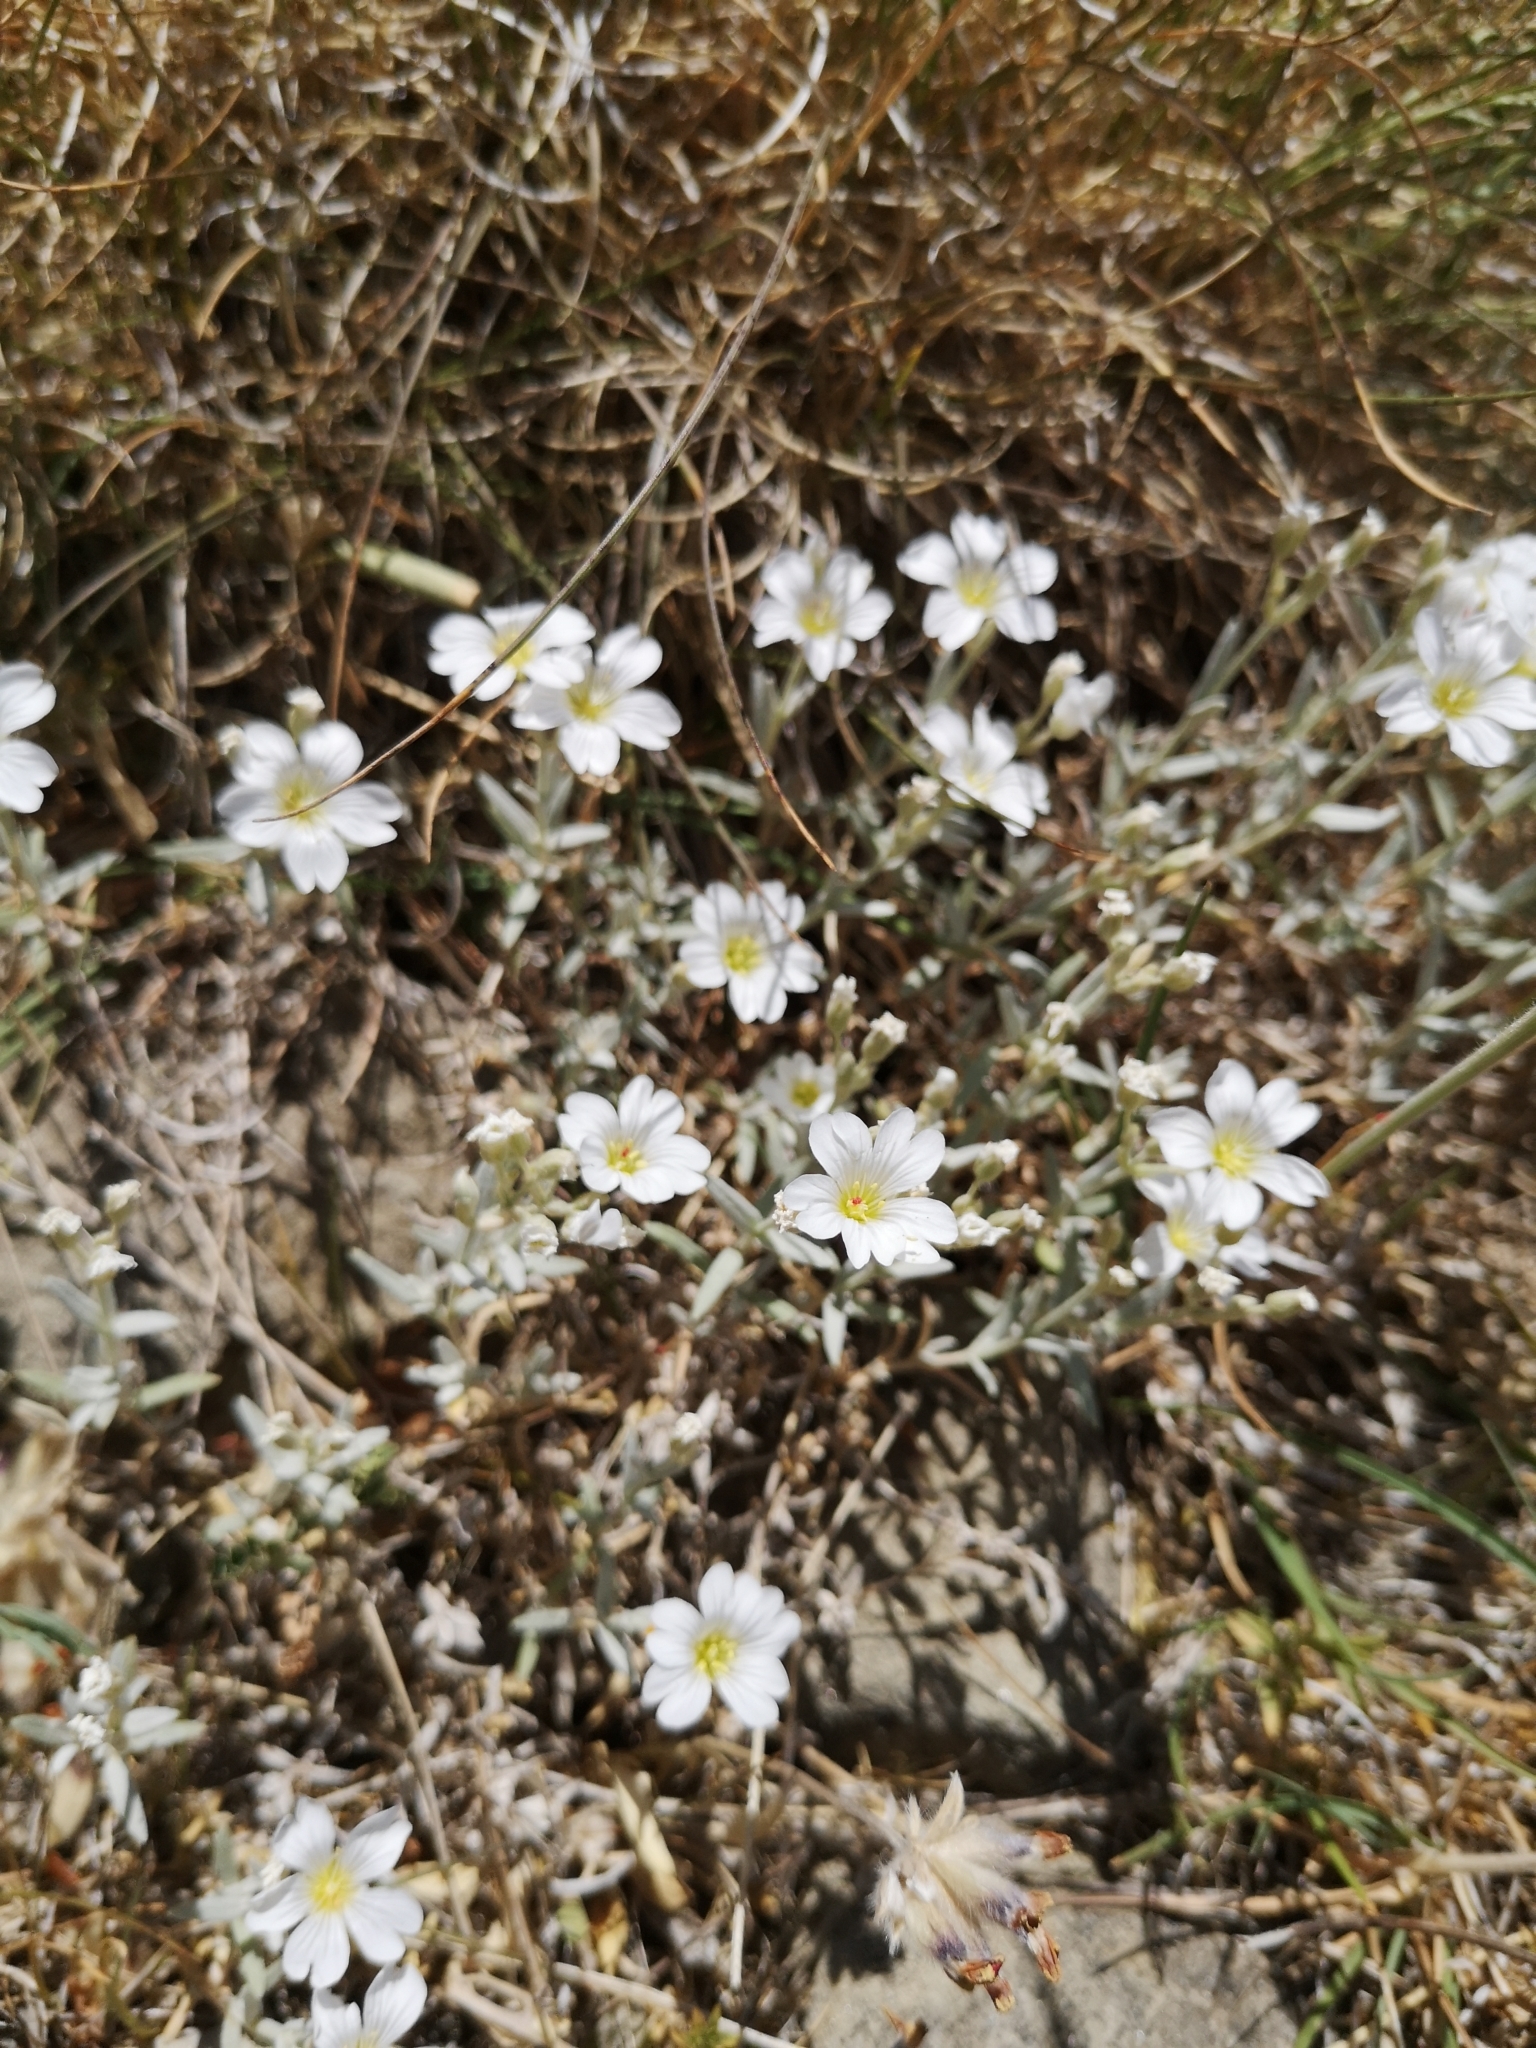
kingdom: Plantae
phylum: Tracheophyta
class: Magnoliopsida
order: Caryophyllales
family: Caryophyllaceae
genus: Cerastium
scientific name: Cerastium tomentosum
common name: Snow-in-summer
